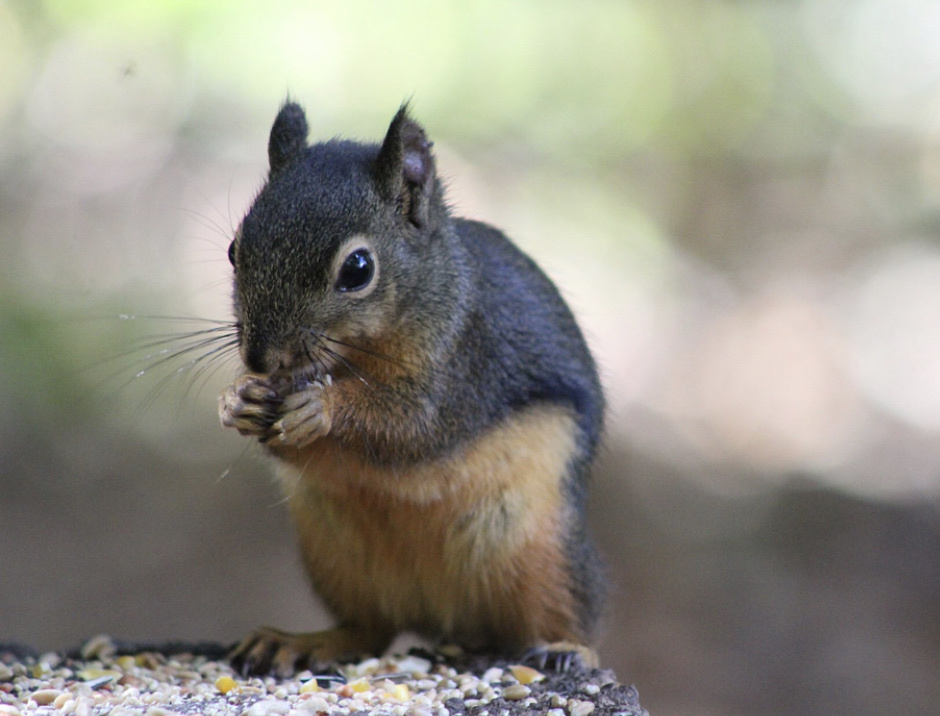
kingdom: Animalia
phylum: Chordata
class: Mammalia
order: Rodentia
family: Sciuridae
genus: Tamiasciurus
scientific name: Tamiasciurus douglasii
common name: Douglas's squirrel
